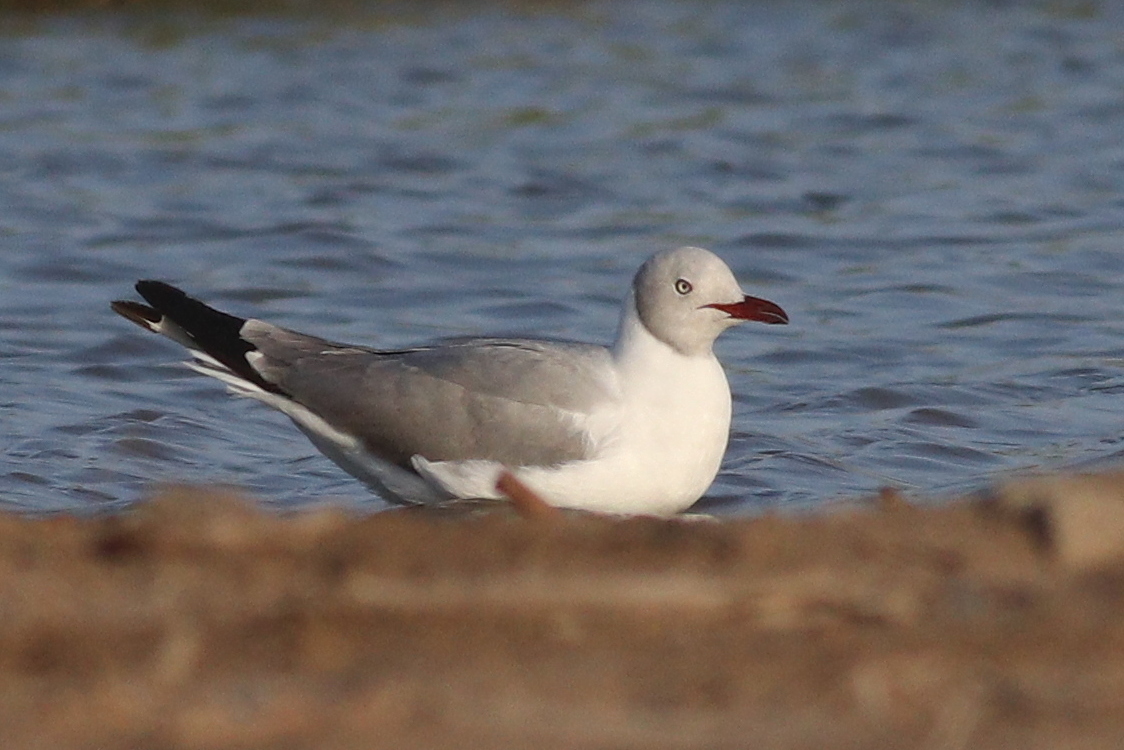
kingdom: Animalia
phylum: Chordata
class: Aves
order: Charadriiformes
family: Laridae
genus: Chroicocephalus
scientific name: Chroicocephalus cirrocephalus
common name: Grey-headed gull
